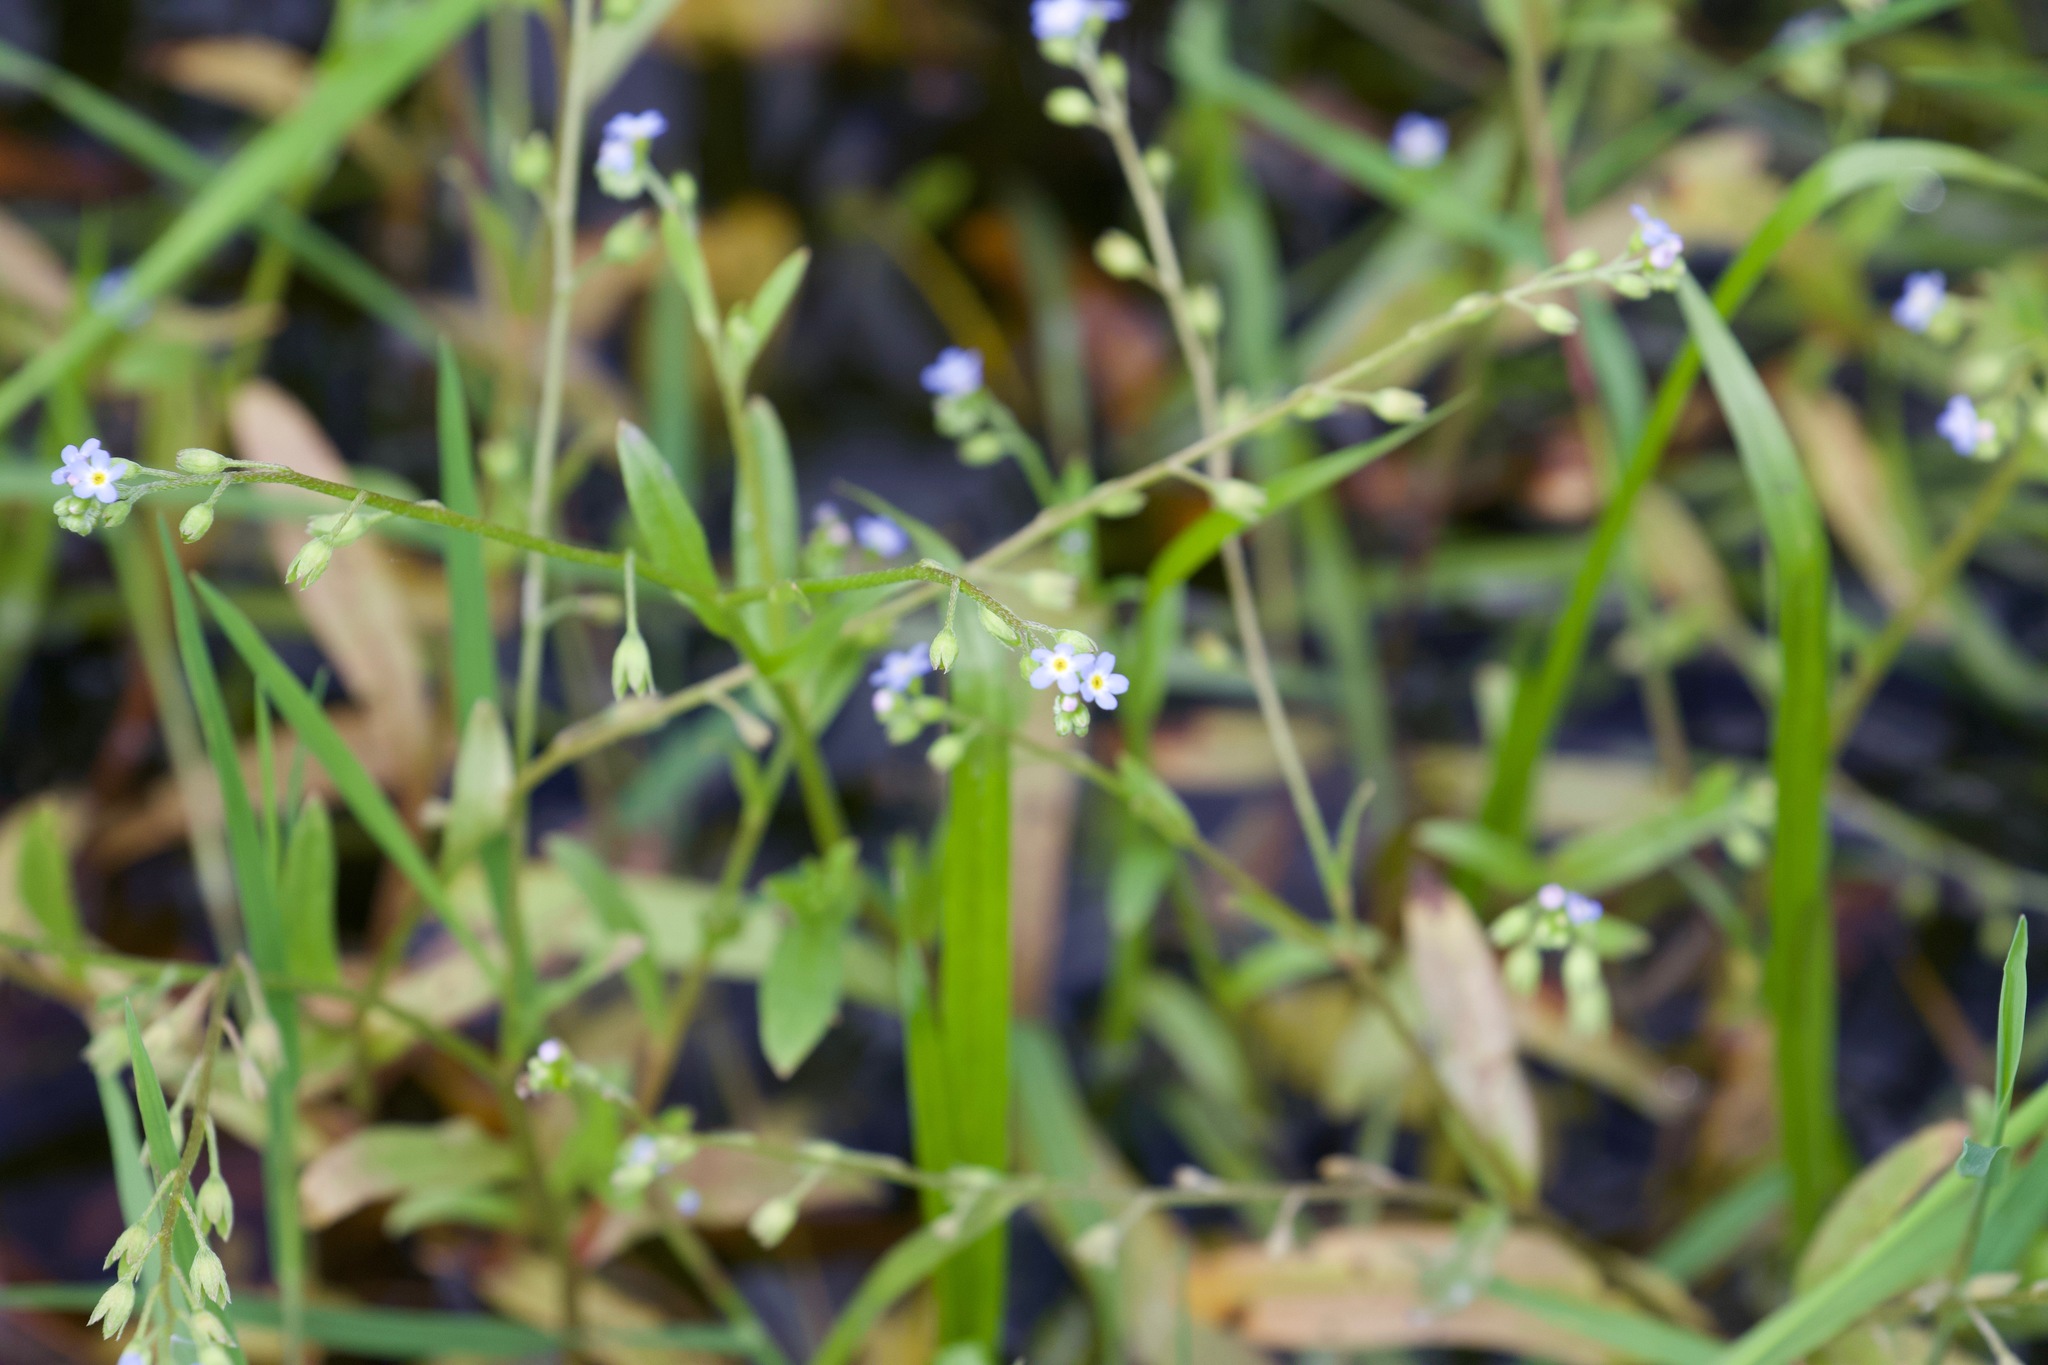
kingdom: Plantae
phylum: Tracheophyta
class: Magnoliopsida
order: Boraginales
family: Boraginaceae
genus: Myosotis
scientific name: Myosotis arvensis
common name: Field forget-me-not
